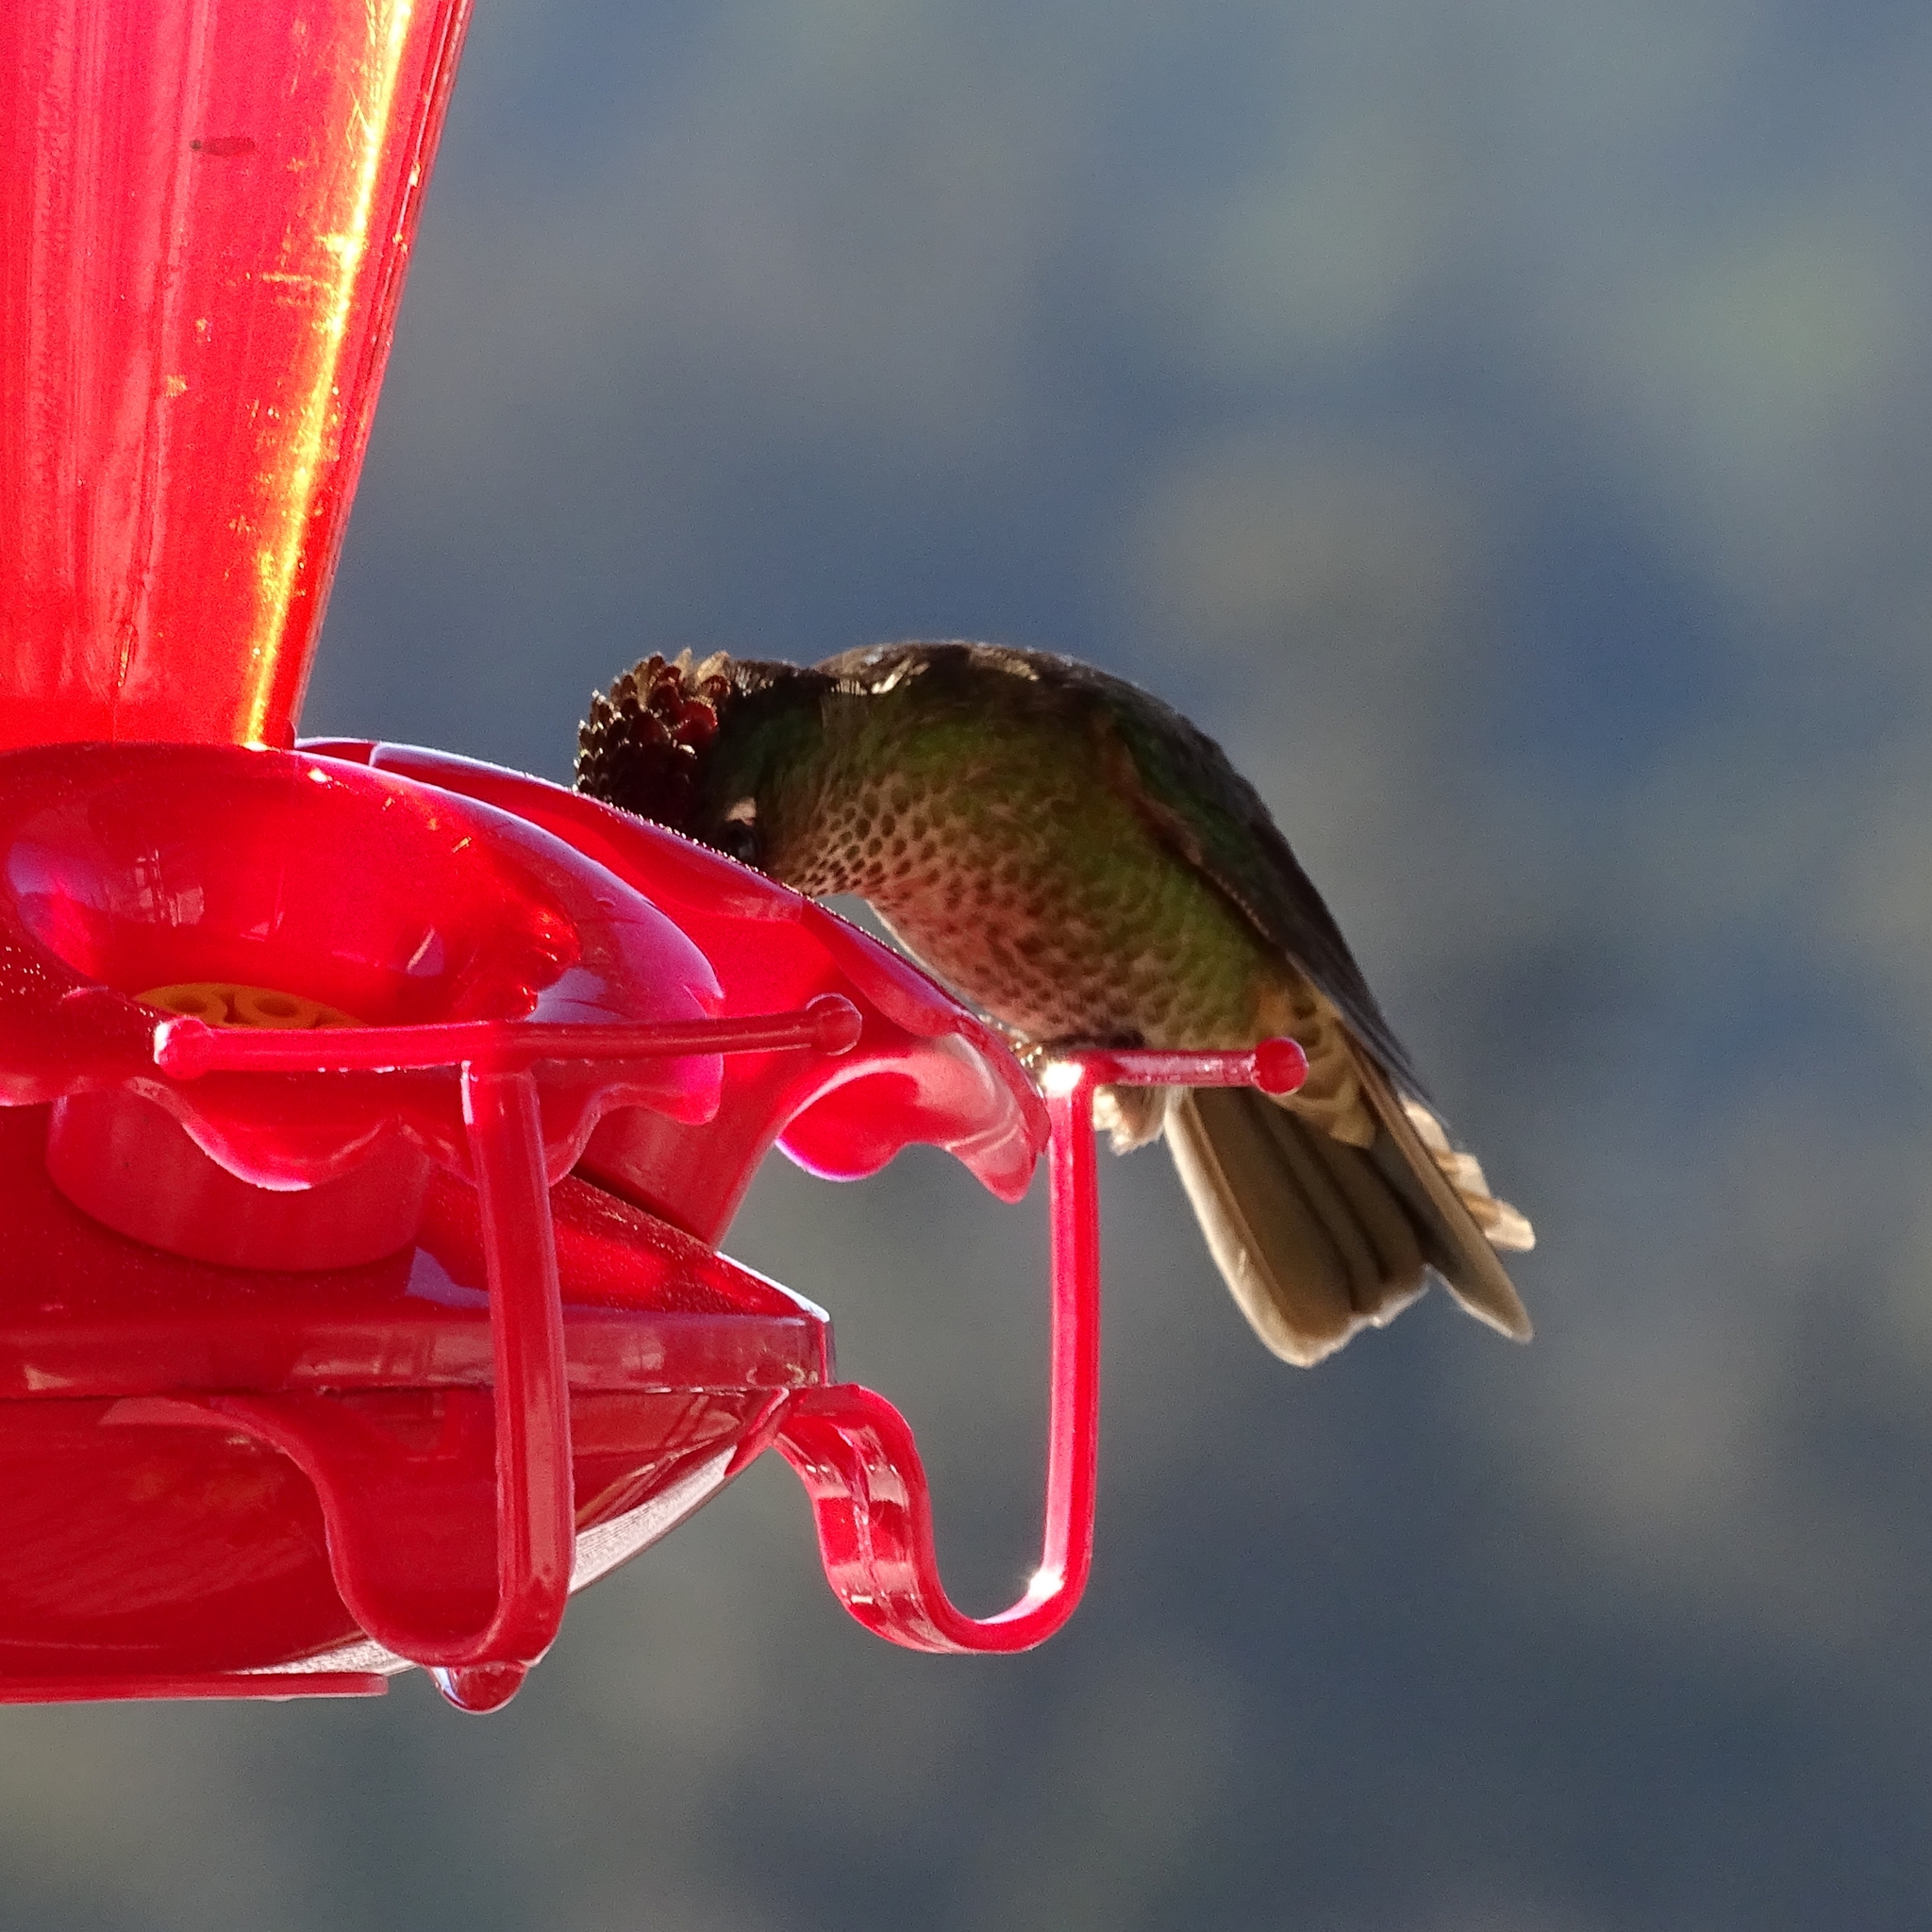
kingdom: Animalia
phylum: Chordata
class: Aves
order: Apodiformes
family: Trochilidae
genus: Sephanoides
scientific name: Sephanoides sephaniodes
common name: Green-backed firecrown
